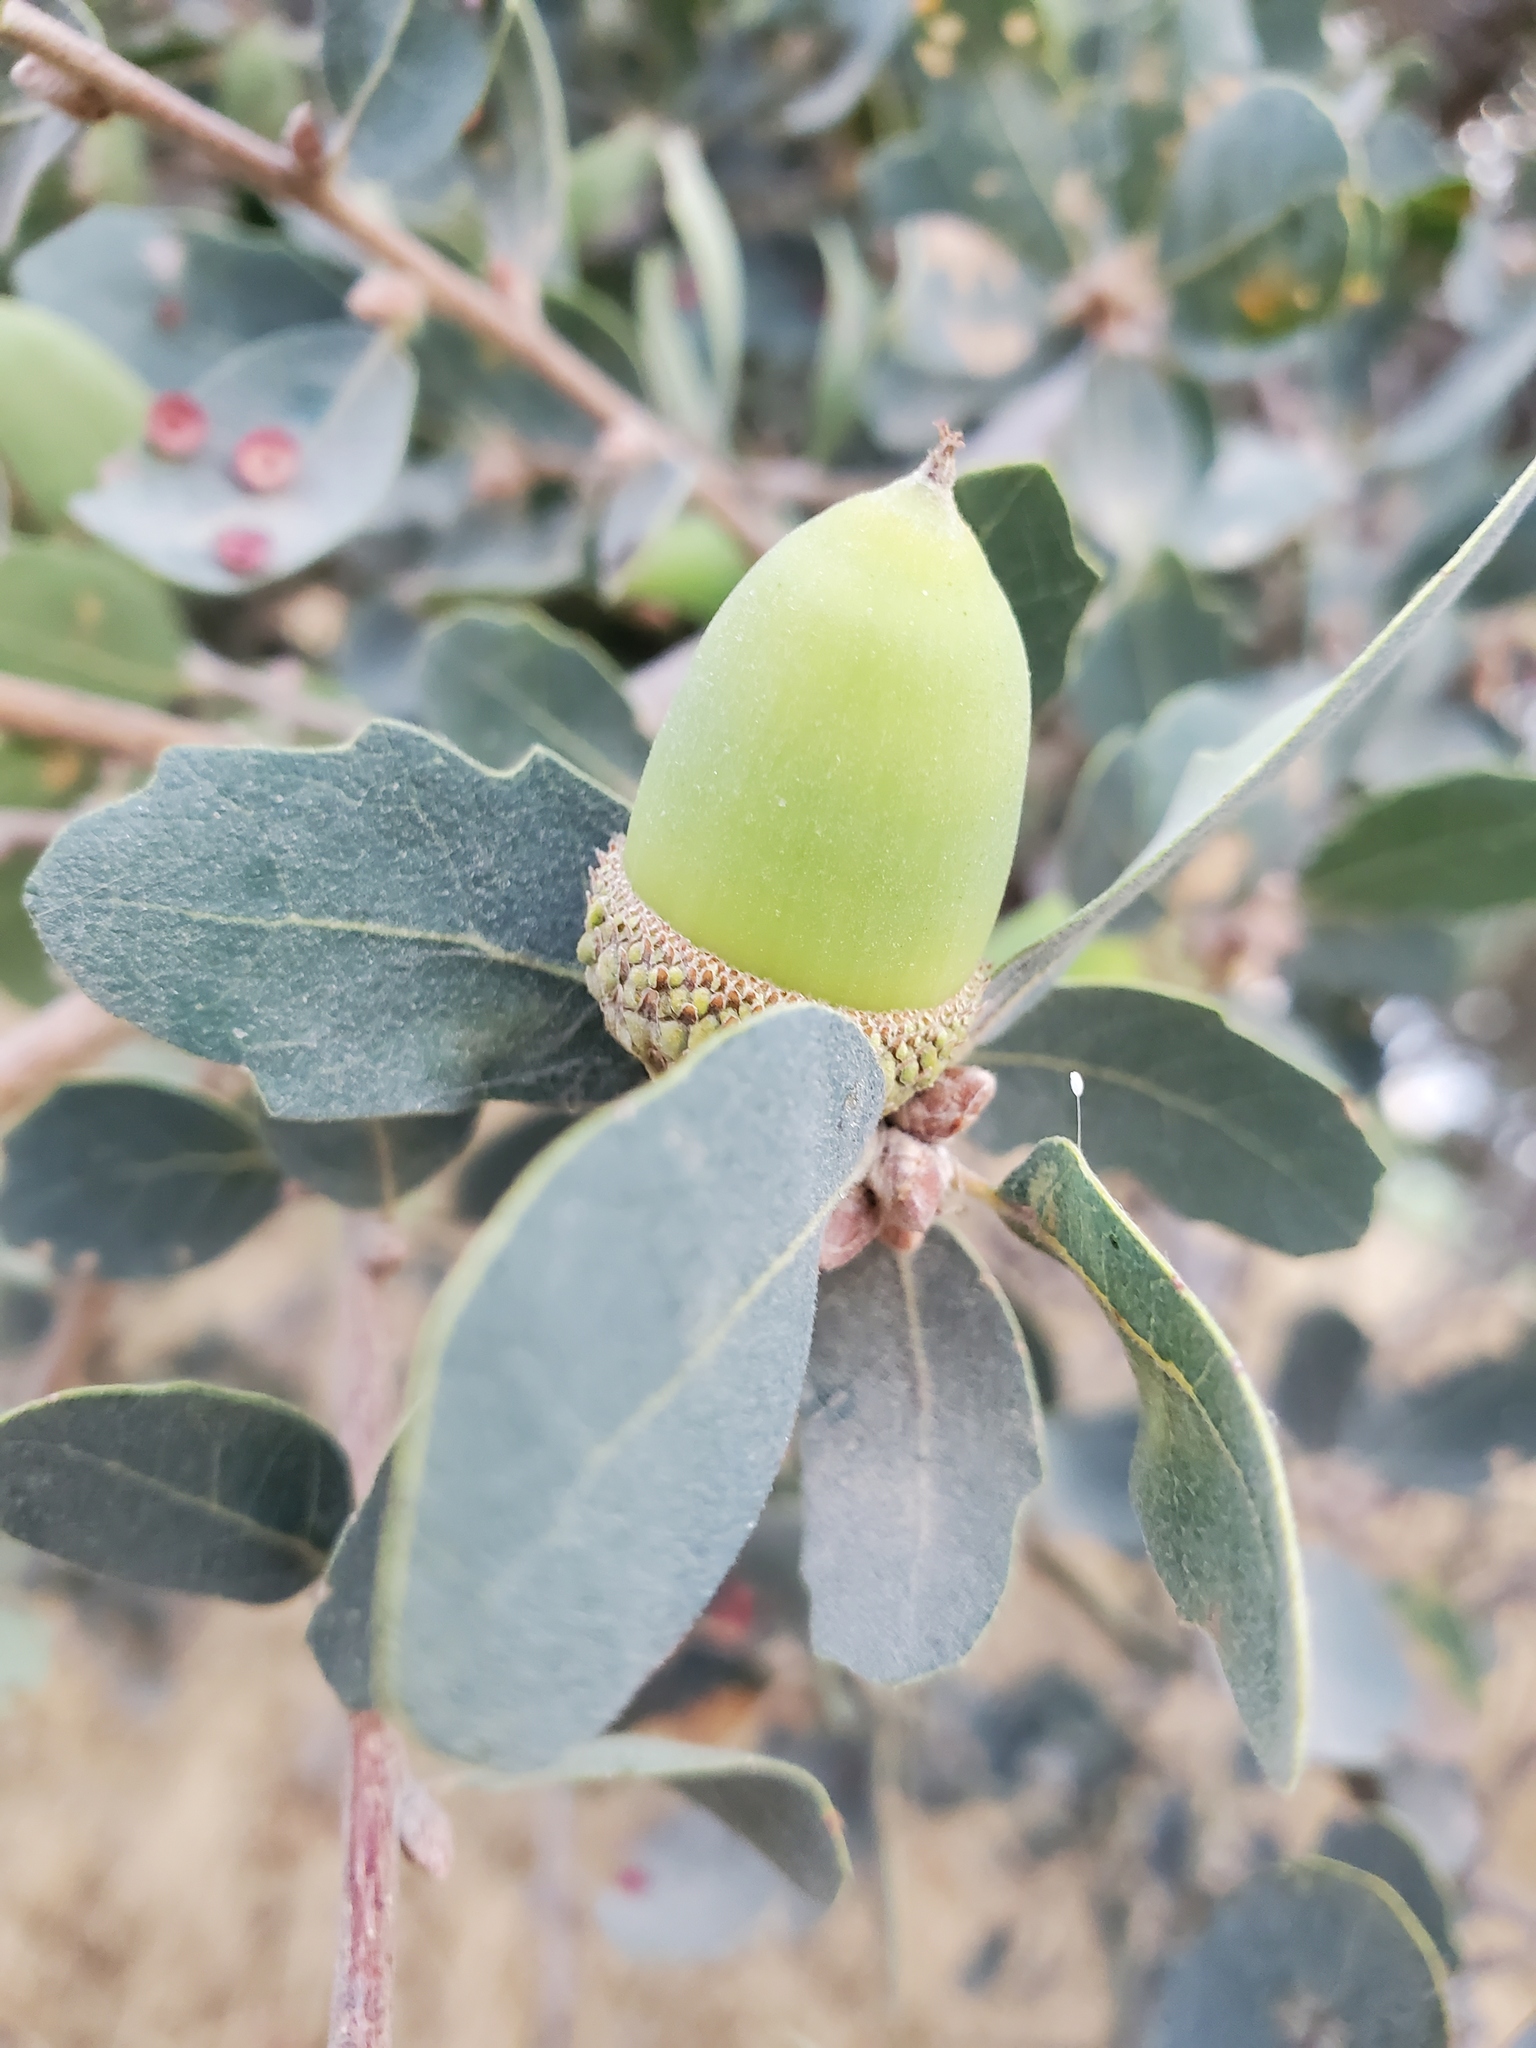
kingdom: Plantae
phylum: Tracheophyta
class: Magnoliopsida
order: Fagales
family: Fagaceae
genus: Quercus
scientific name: Quercus douglasii
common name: Blue oak
